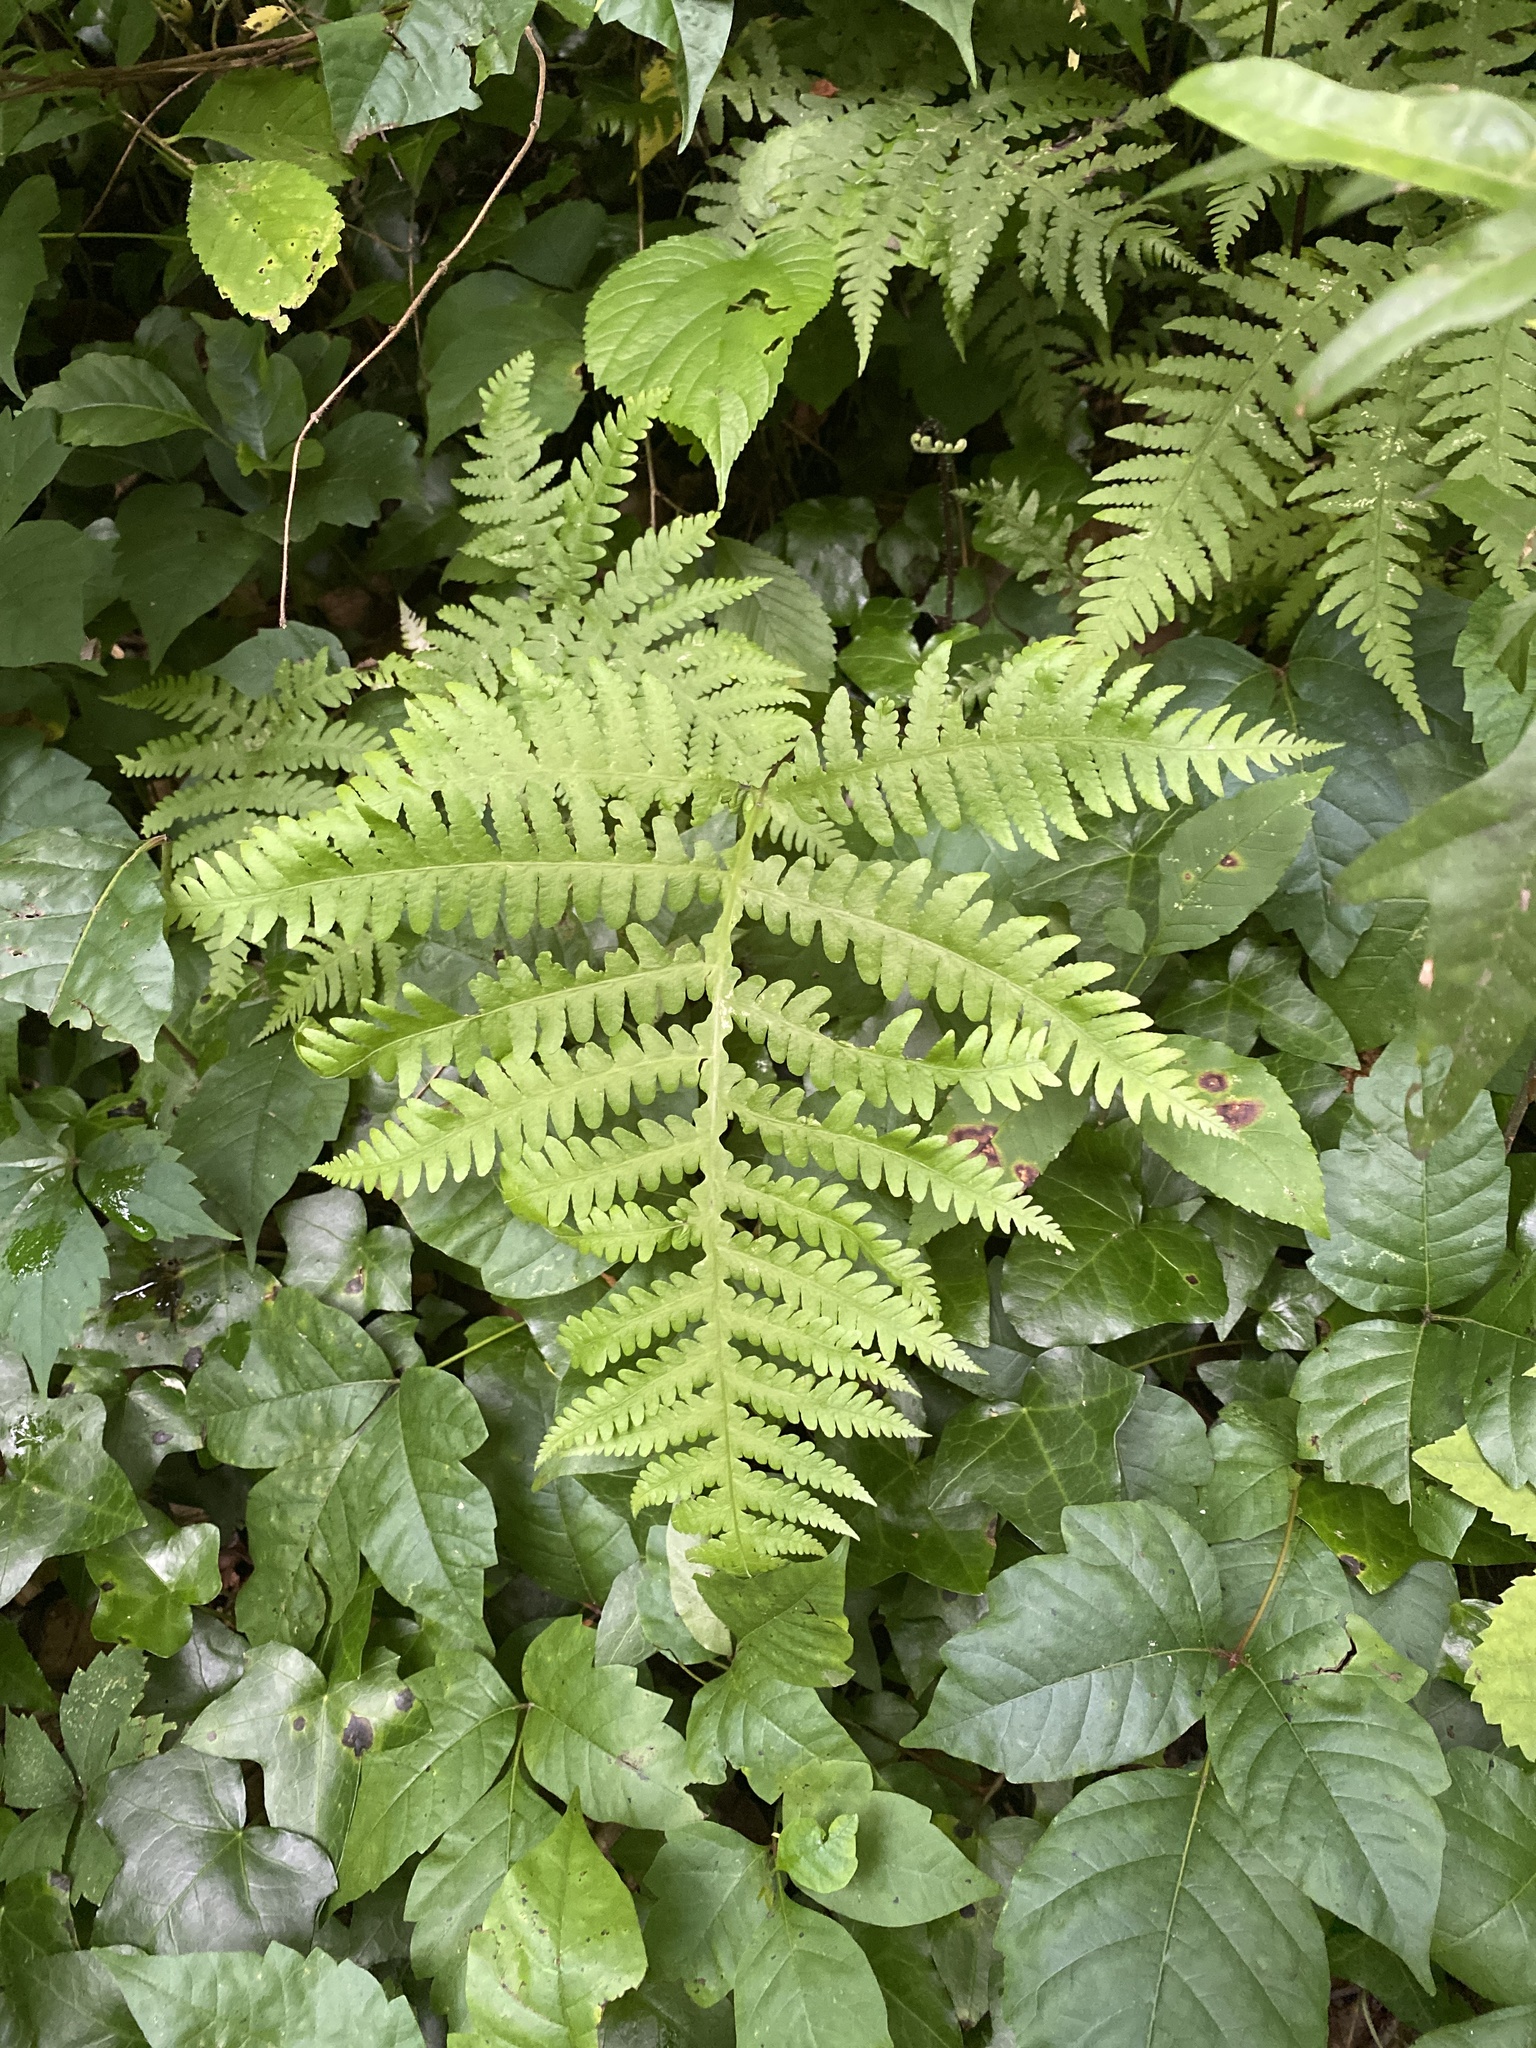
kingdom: Plantae
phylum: Tracheophyta
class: Polypodiopsida
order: Polypodiales
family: Thelypteridaceae
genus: Phegopteris
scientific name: Phegopteris hexagonoptera
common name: Broad beech fern
